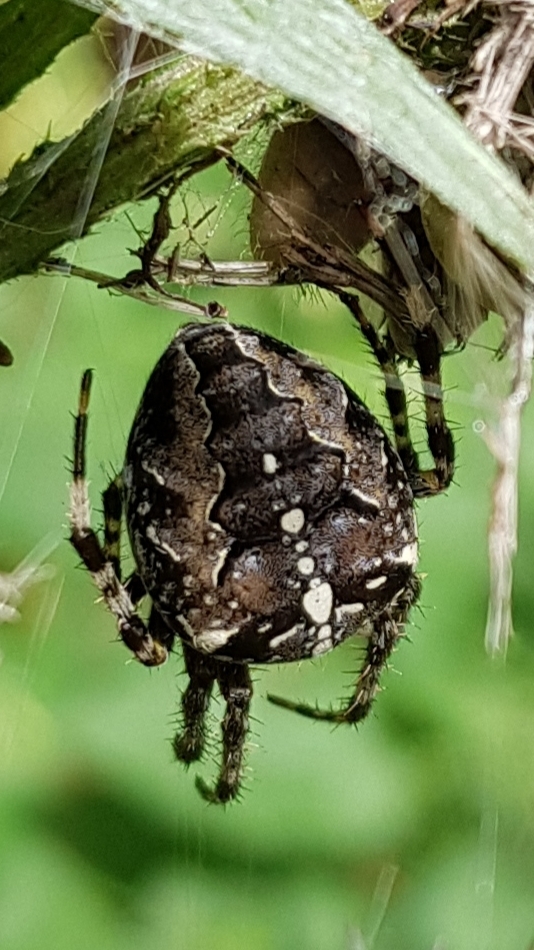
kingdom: Animalia
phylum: Arthropoda
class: Arachnida
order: Araneae
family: Araneidae
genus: Araneus
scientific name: Araneus diadematus
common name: Cross orbweaver
